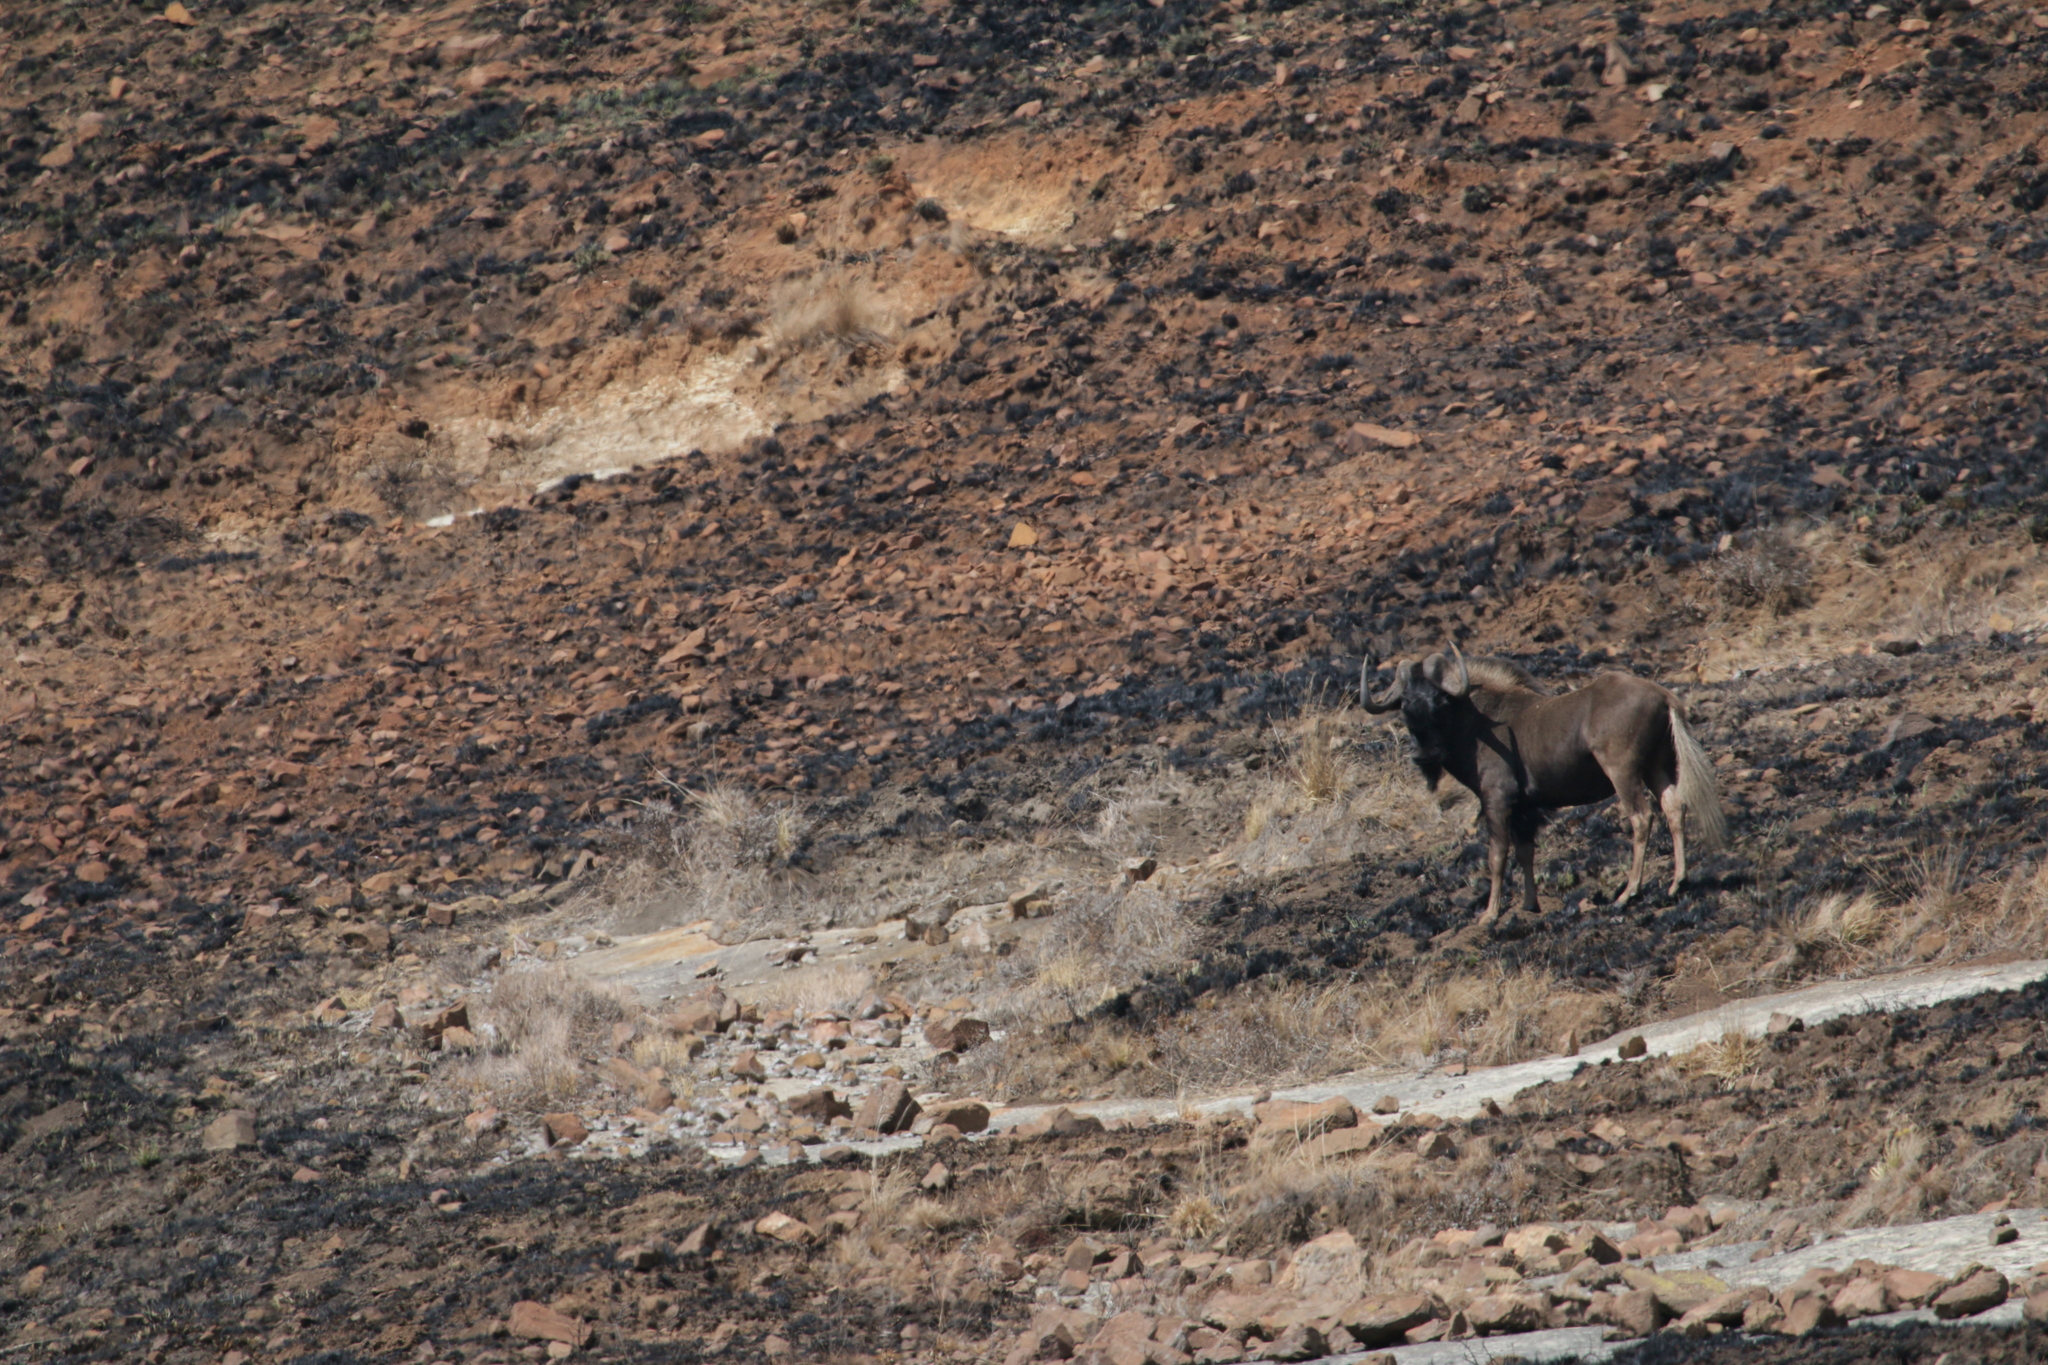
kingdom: Animalia
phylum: Chordata
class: Mammalia
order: Artiodactyla
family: Bovidae
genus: Connochaetes
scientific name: Connochaetes gnou
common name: Black wildebeest
